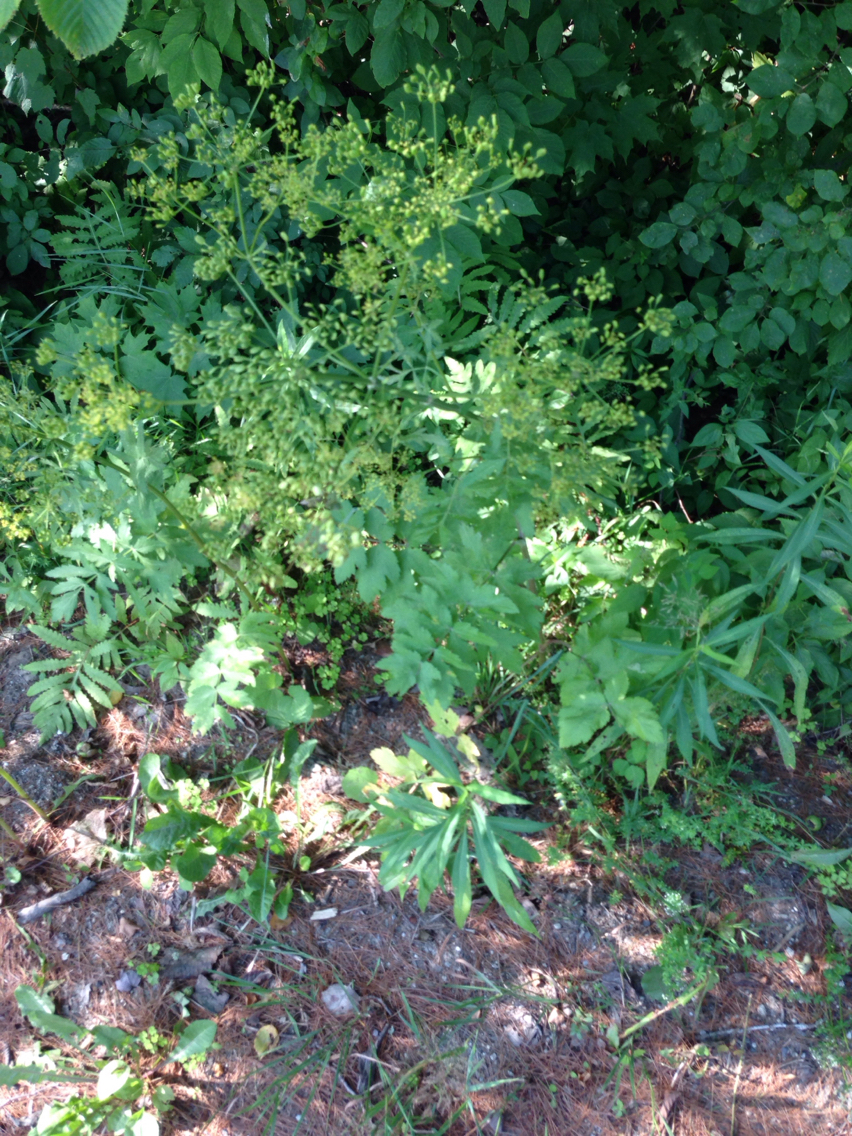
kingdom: Plantae
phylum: Tracheophyta
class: Magnoliopsida
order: Apiales
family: Apiaceae
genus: Pastinaca
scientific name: Pastinaca sativa
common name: Wild parsnip
